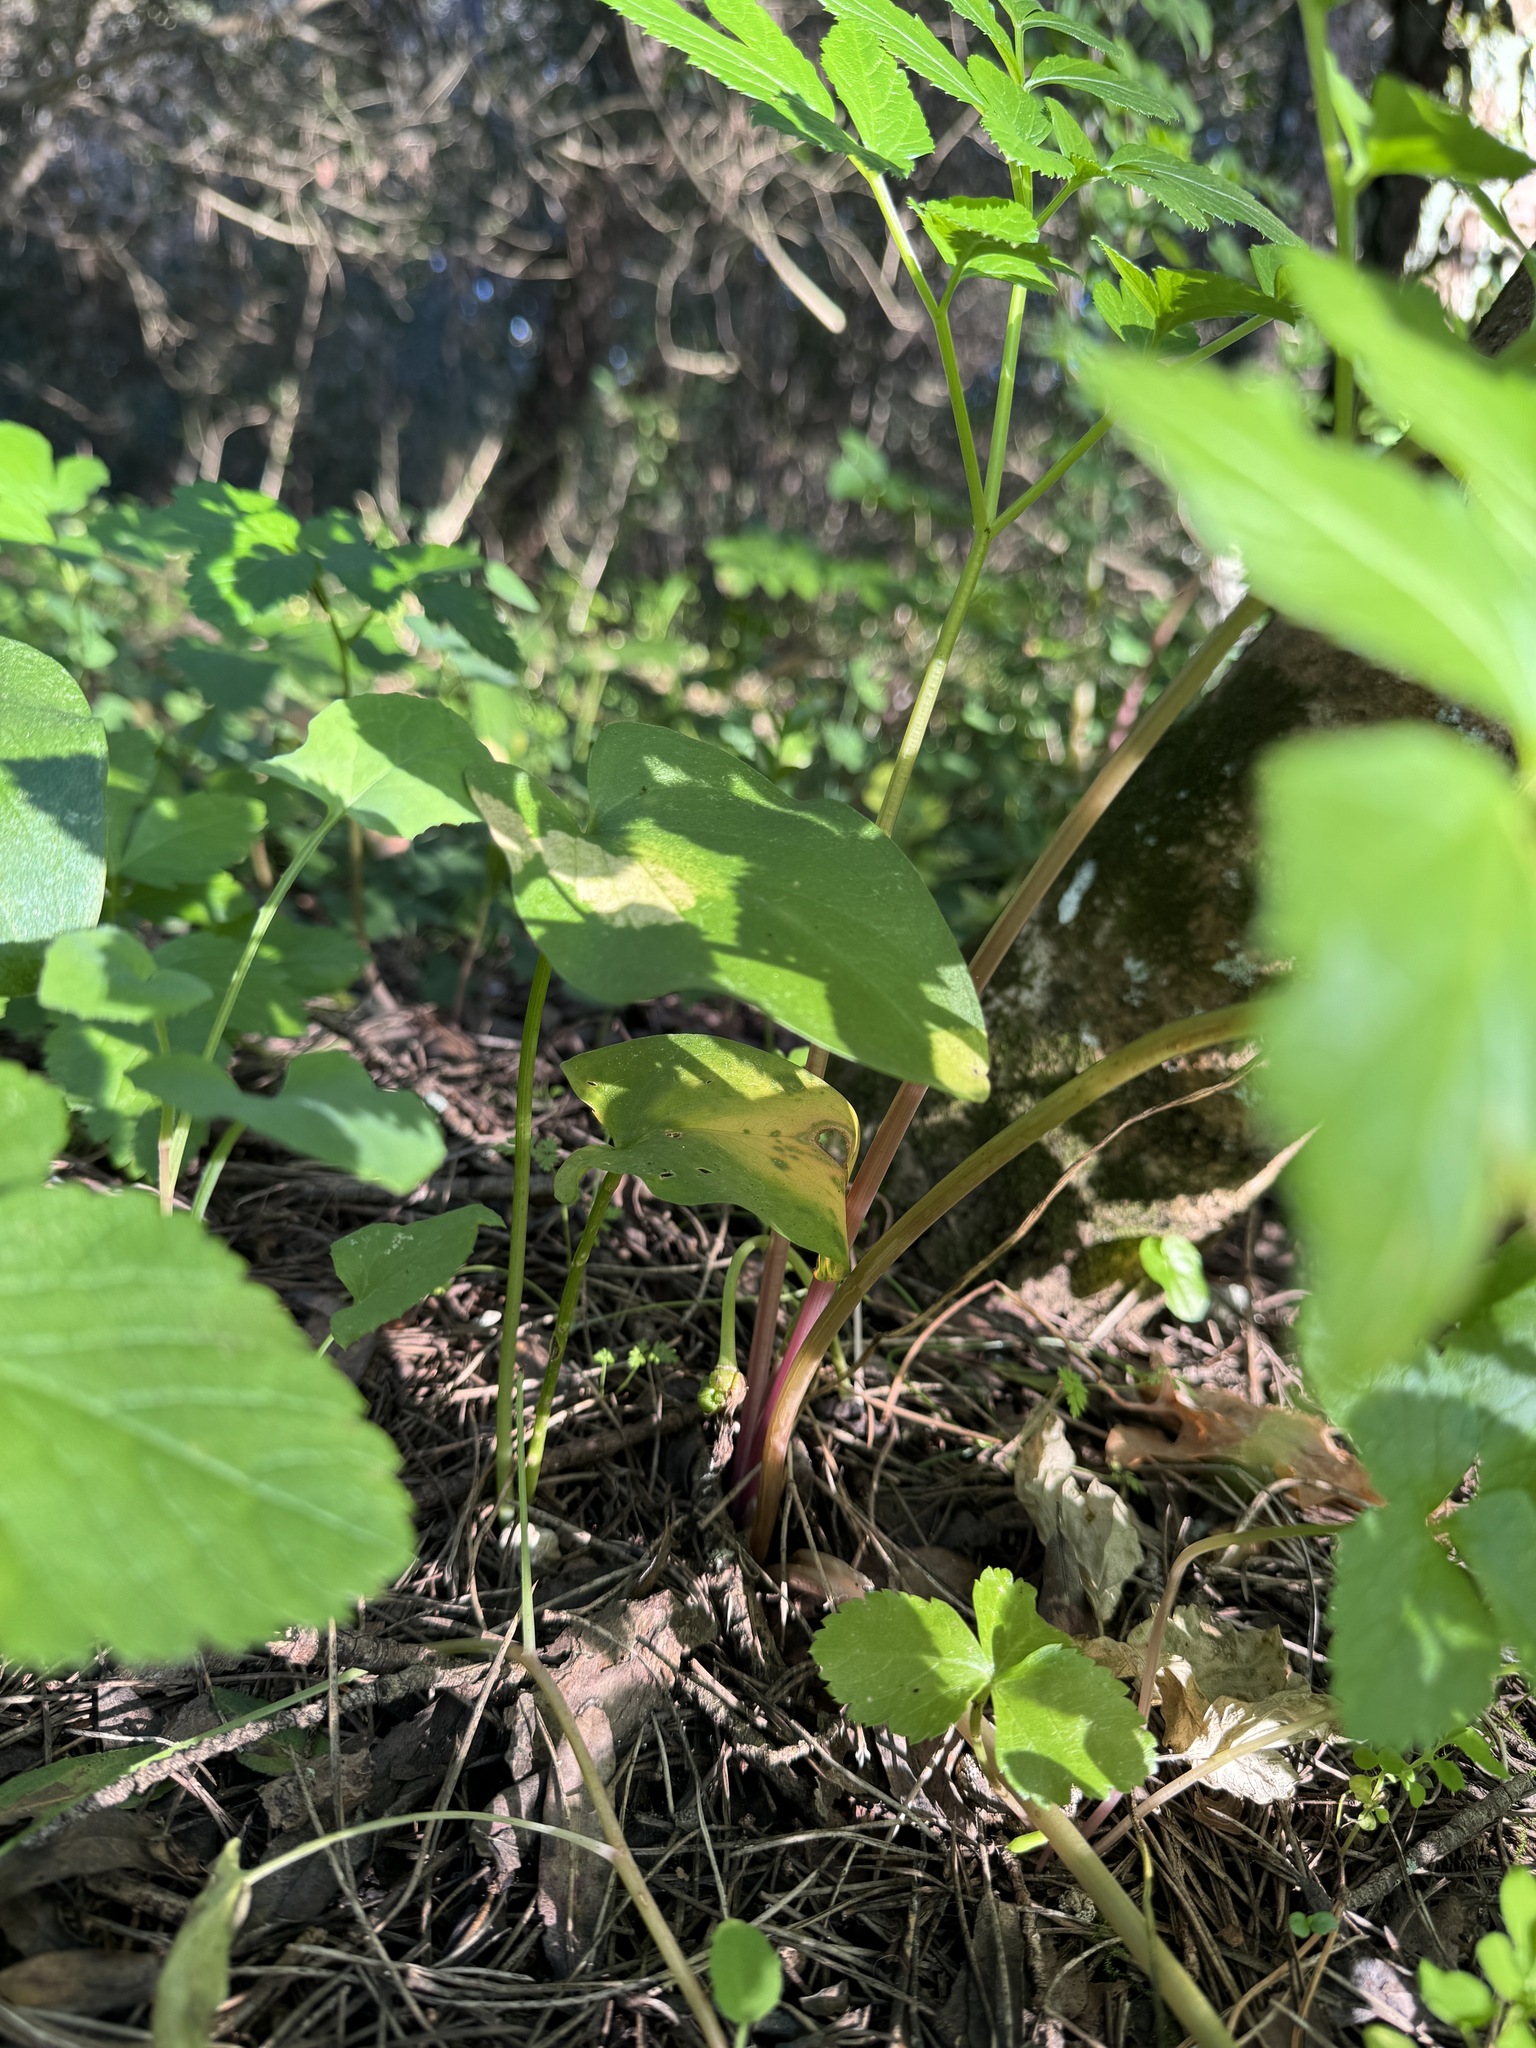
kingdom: Plantae
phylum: Tracheophyta
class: Liliopsida
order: Alismatales
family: Araceae
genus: Arisarum
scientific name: Arisarum simorrhinum
